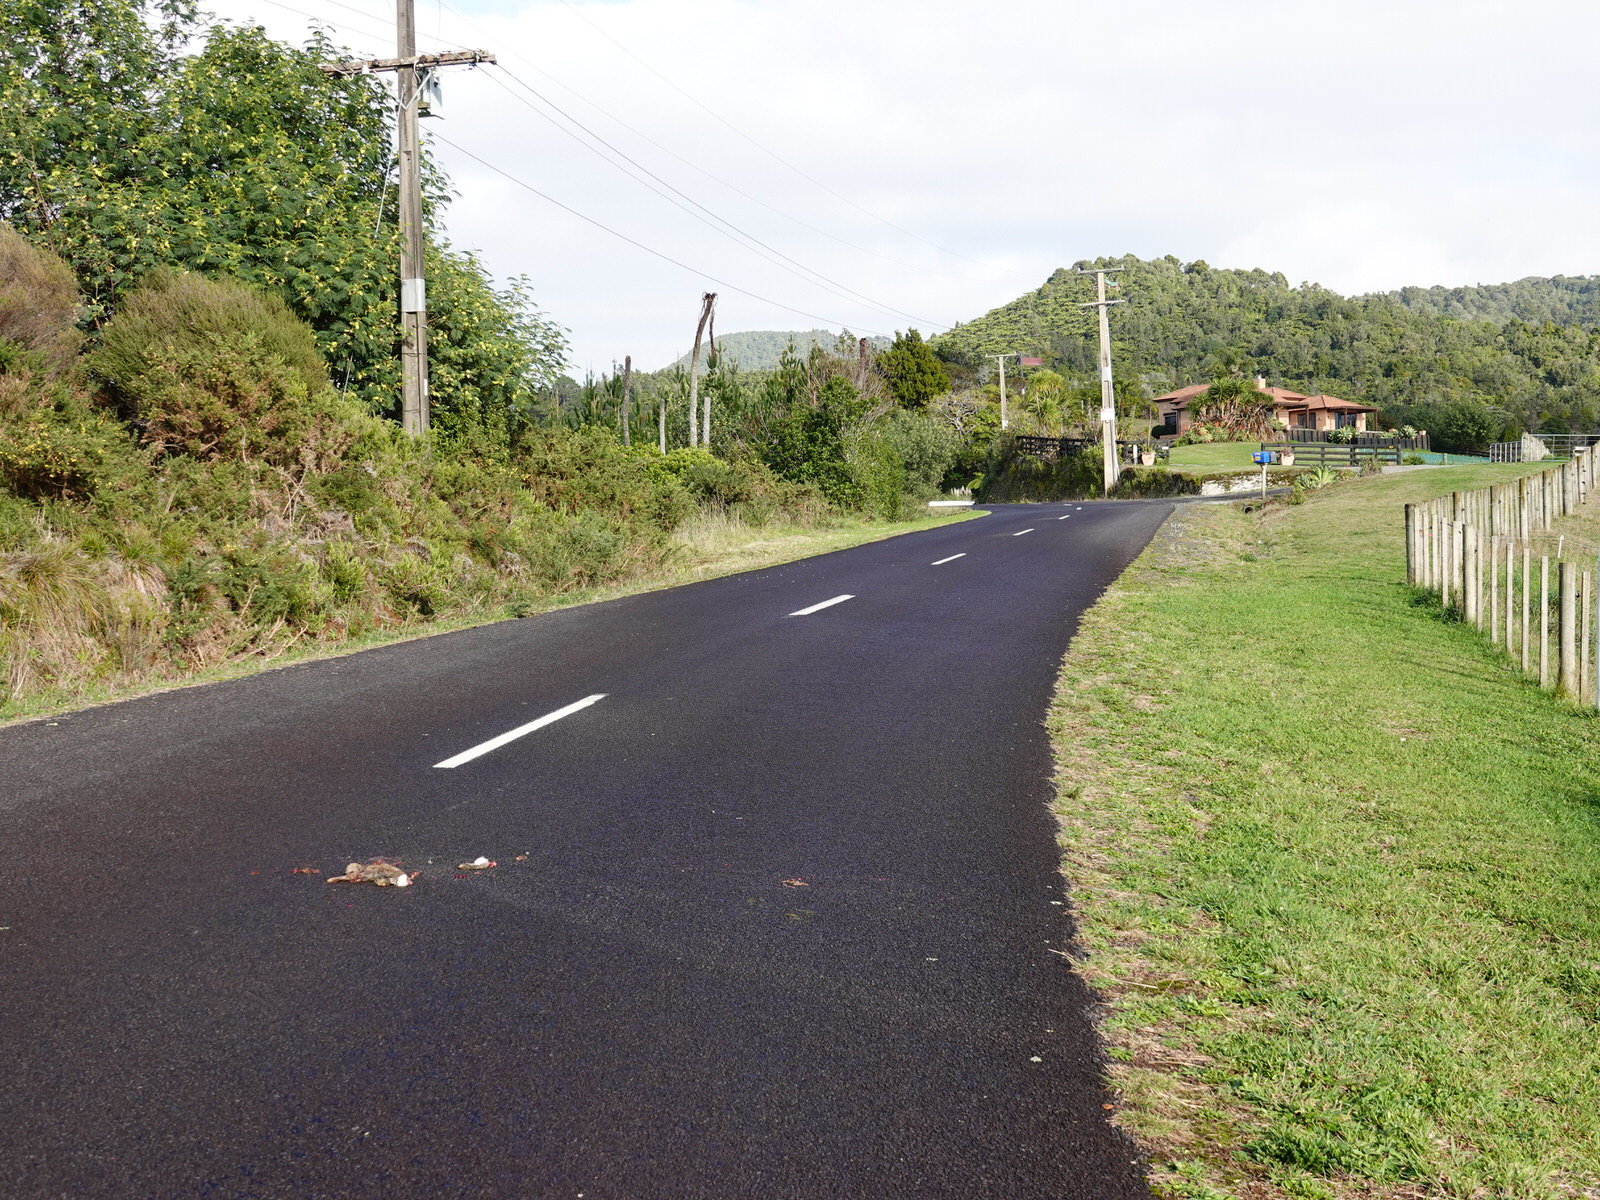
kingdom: Animalia
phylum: Chordata
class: Mammalia
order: Lagomorpha
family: Leporidae
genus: Oryctolagus
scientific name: Oryctolagus cuniculus
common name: European rabbit
